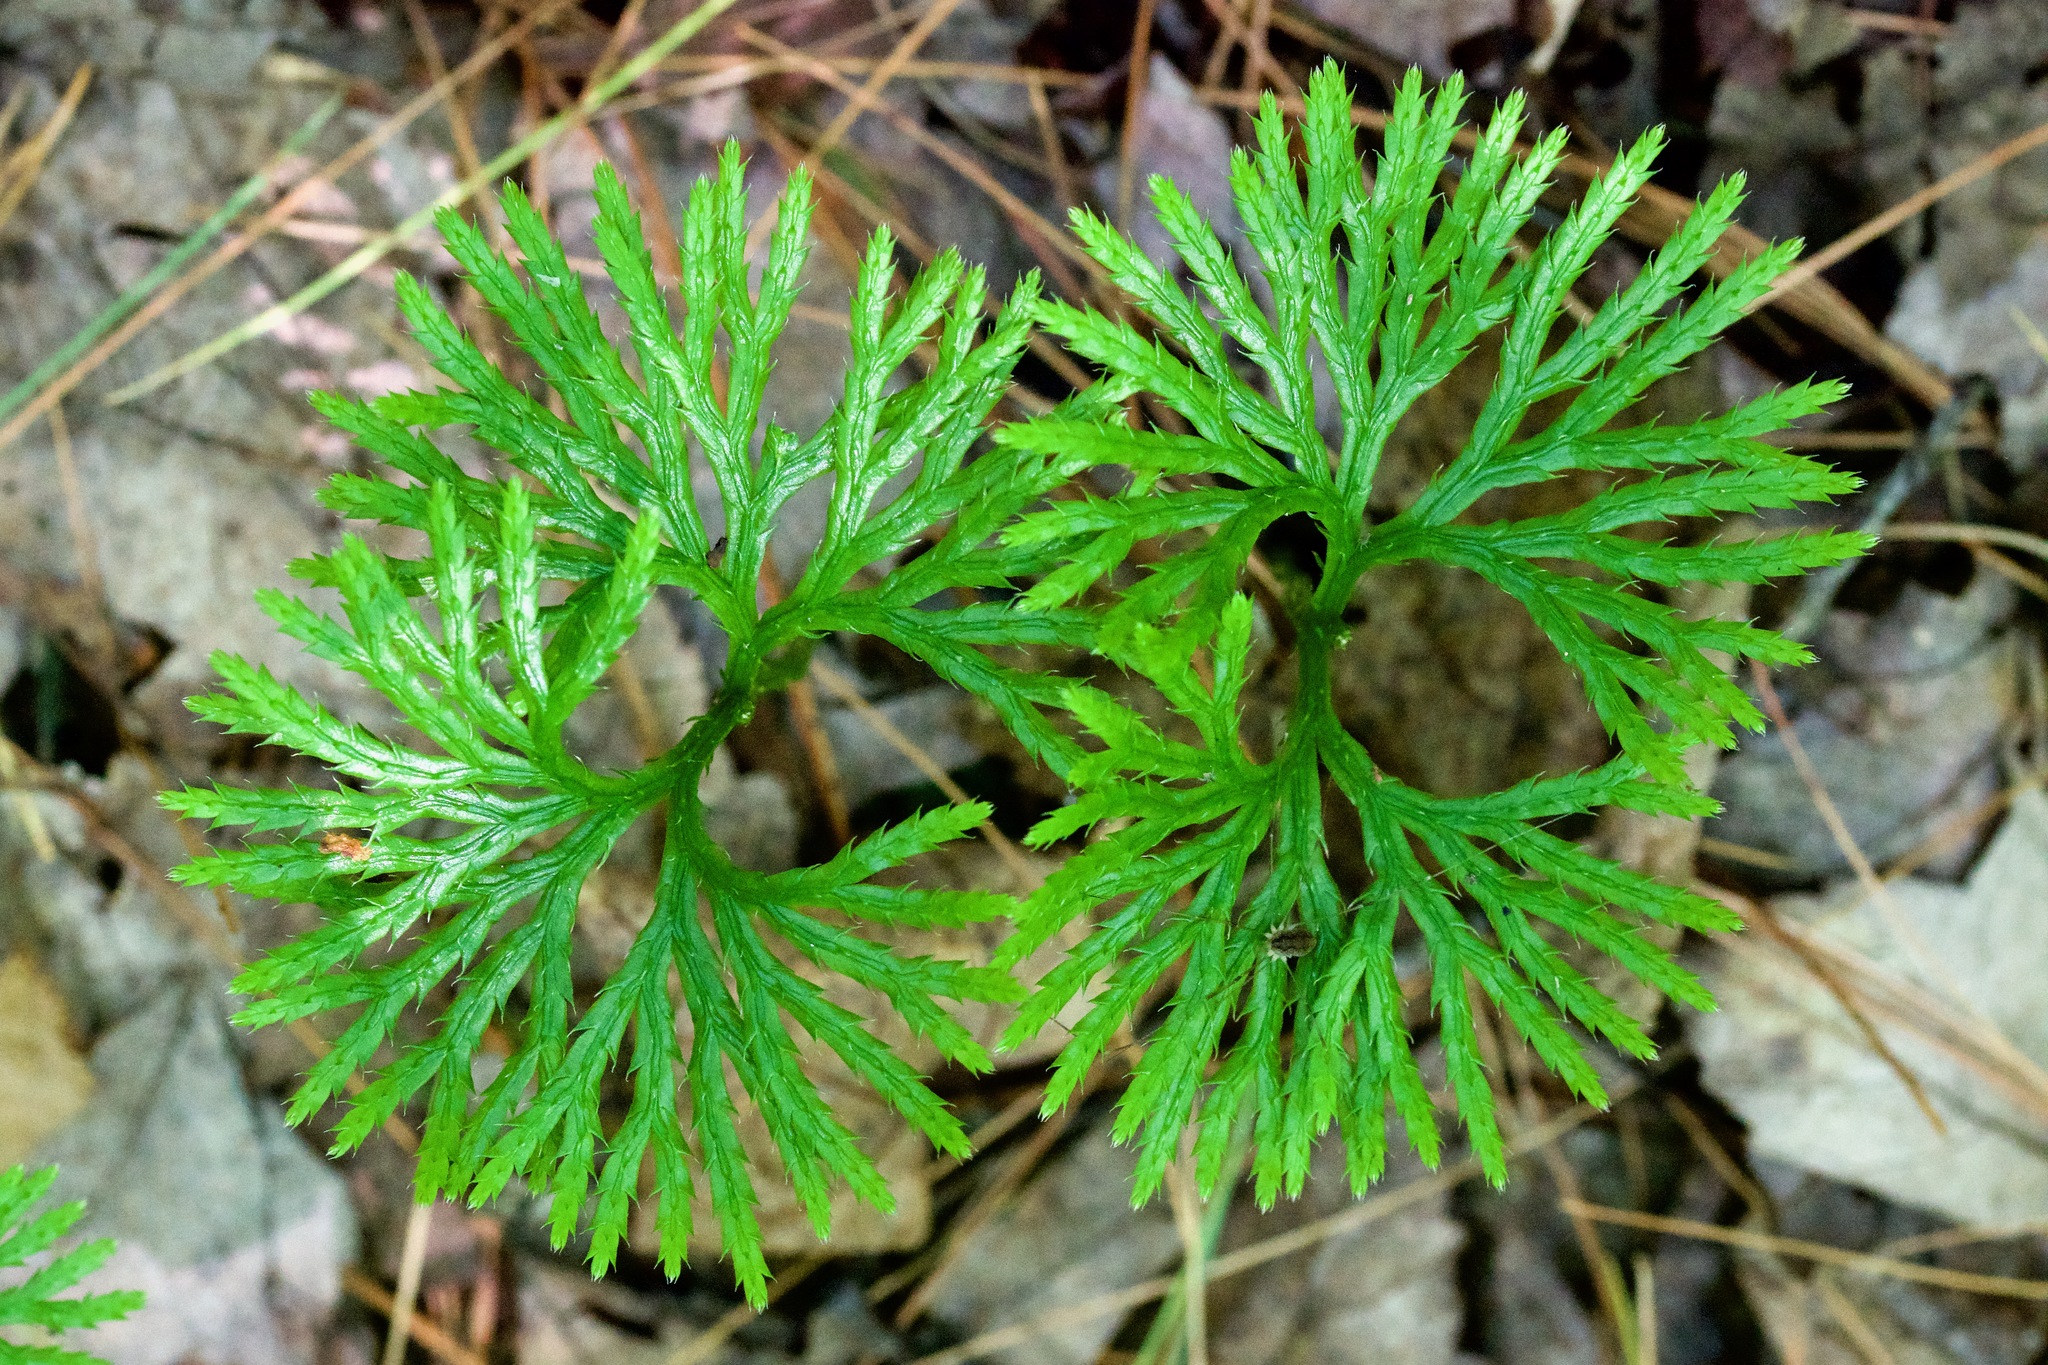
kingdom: Plantae
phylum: Tracheophyta
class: Lycopodiopsida
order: Lycopodiales
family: Lycopodiaceae
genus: Diphasiastrum
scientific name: Diphasiastrum digitatum
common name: Southern running-pine
